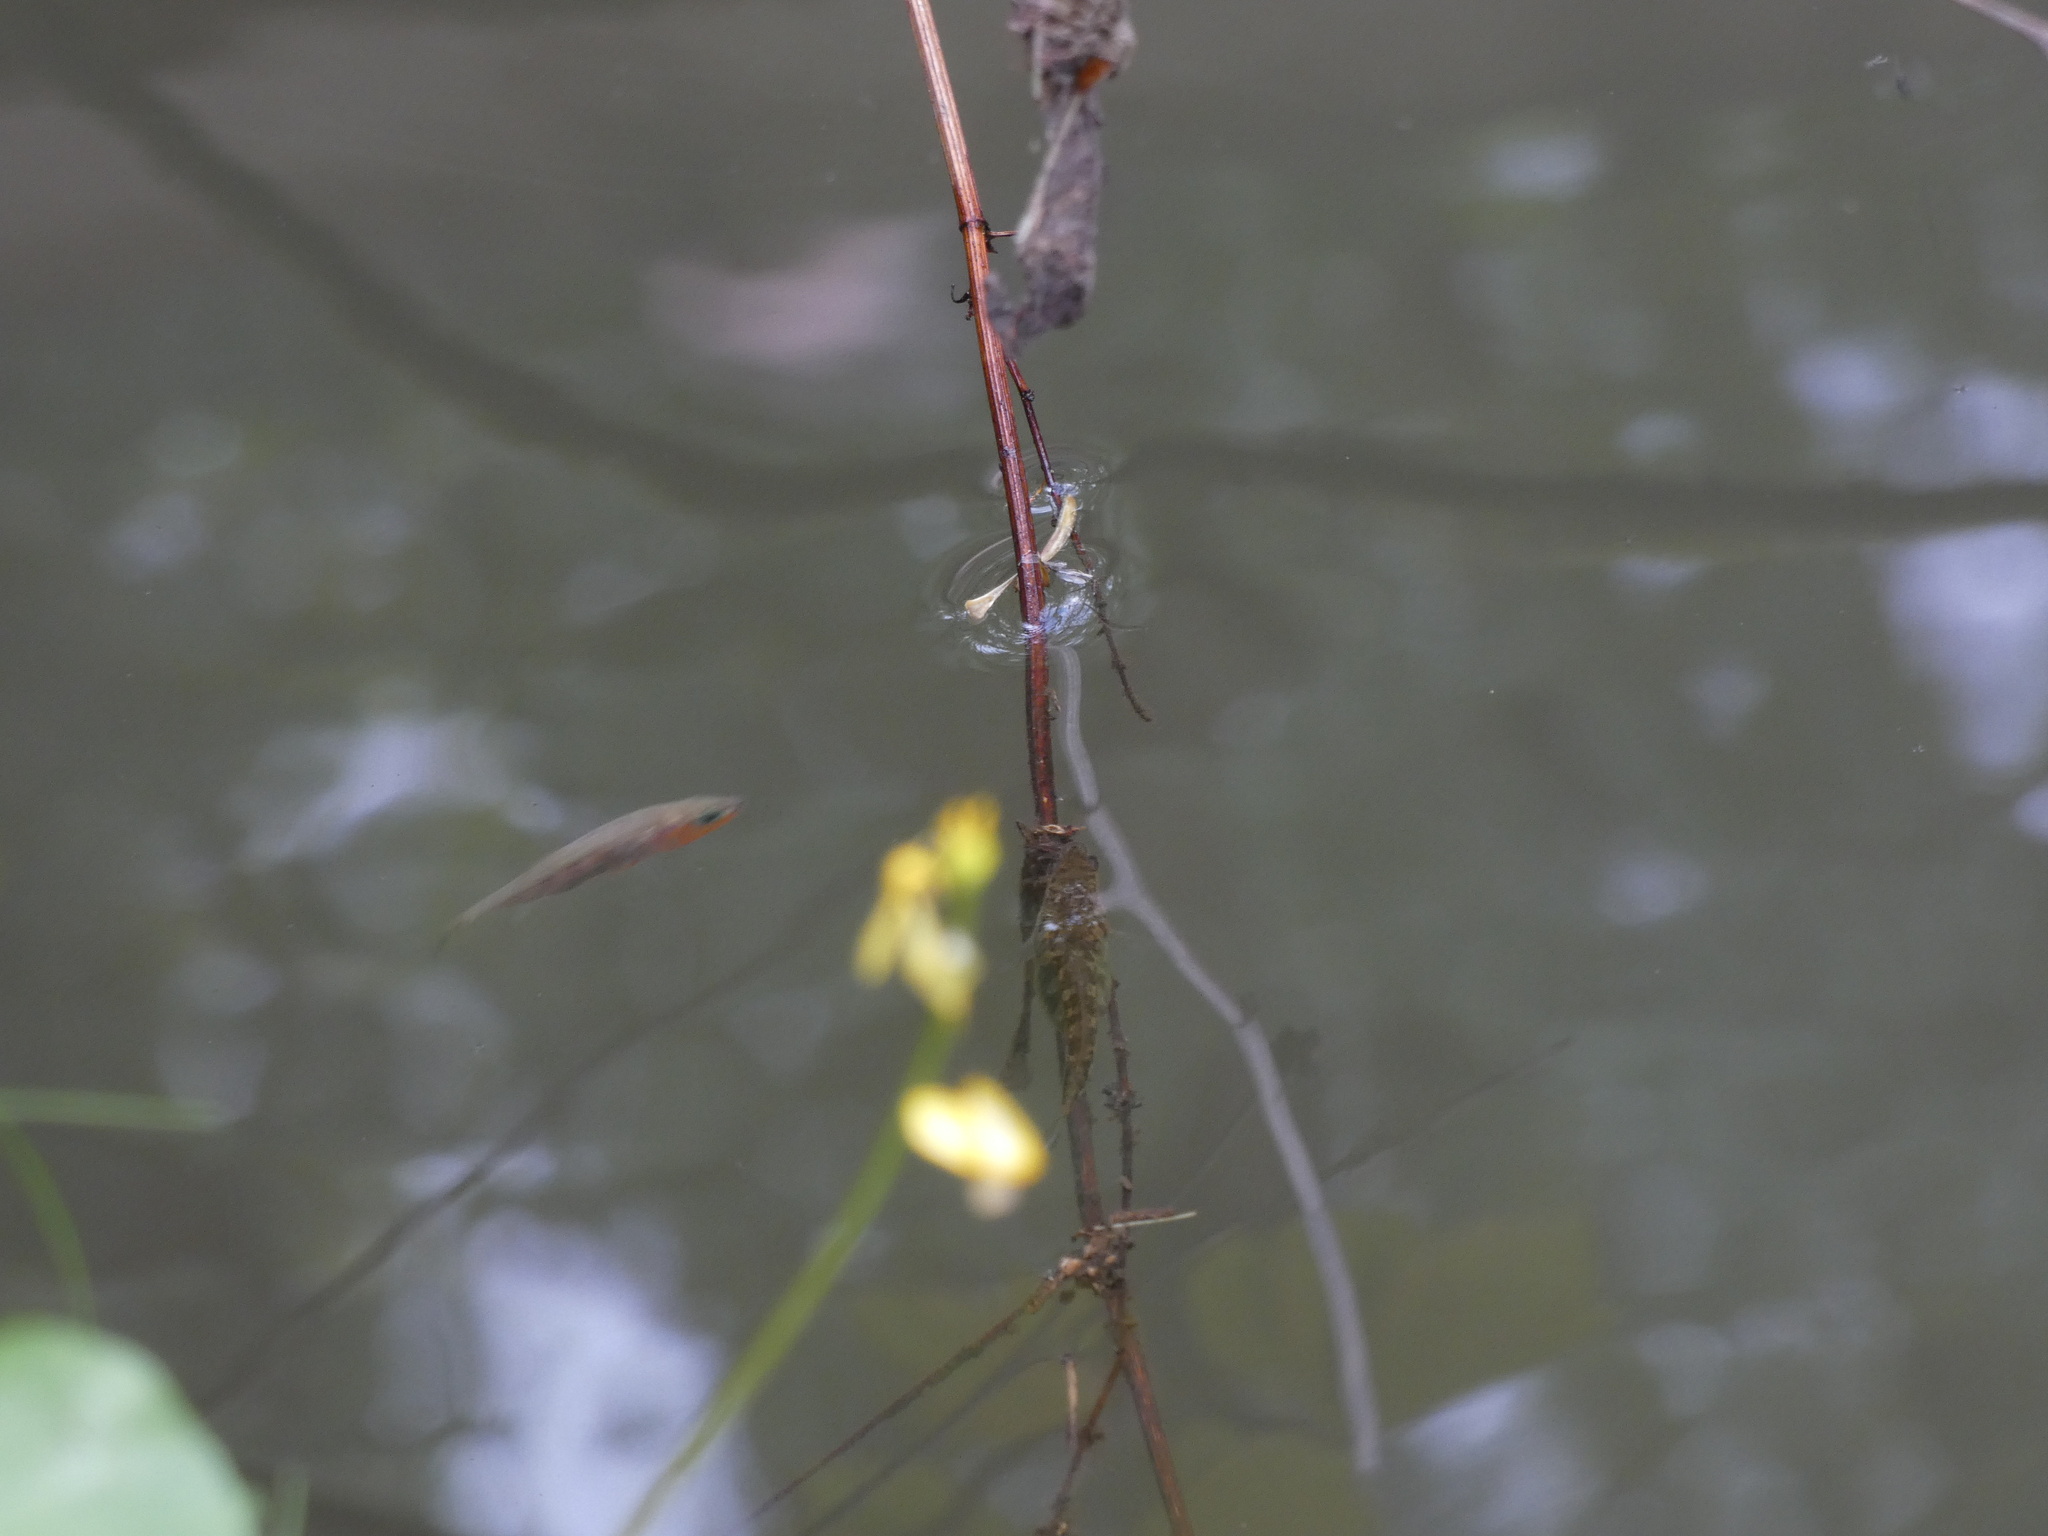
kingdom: Animalia
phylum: Chordata
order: Gasterosteiformes
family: Gasterosteidae
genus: Gasterosteus
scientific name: Gasterosteus aculeatus
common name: Three-spined stickleback
